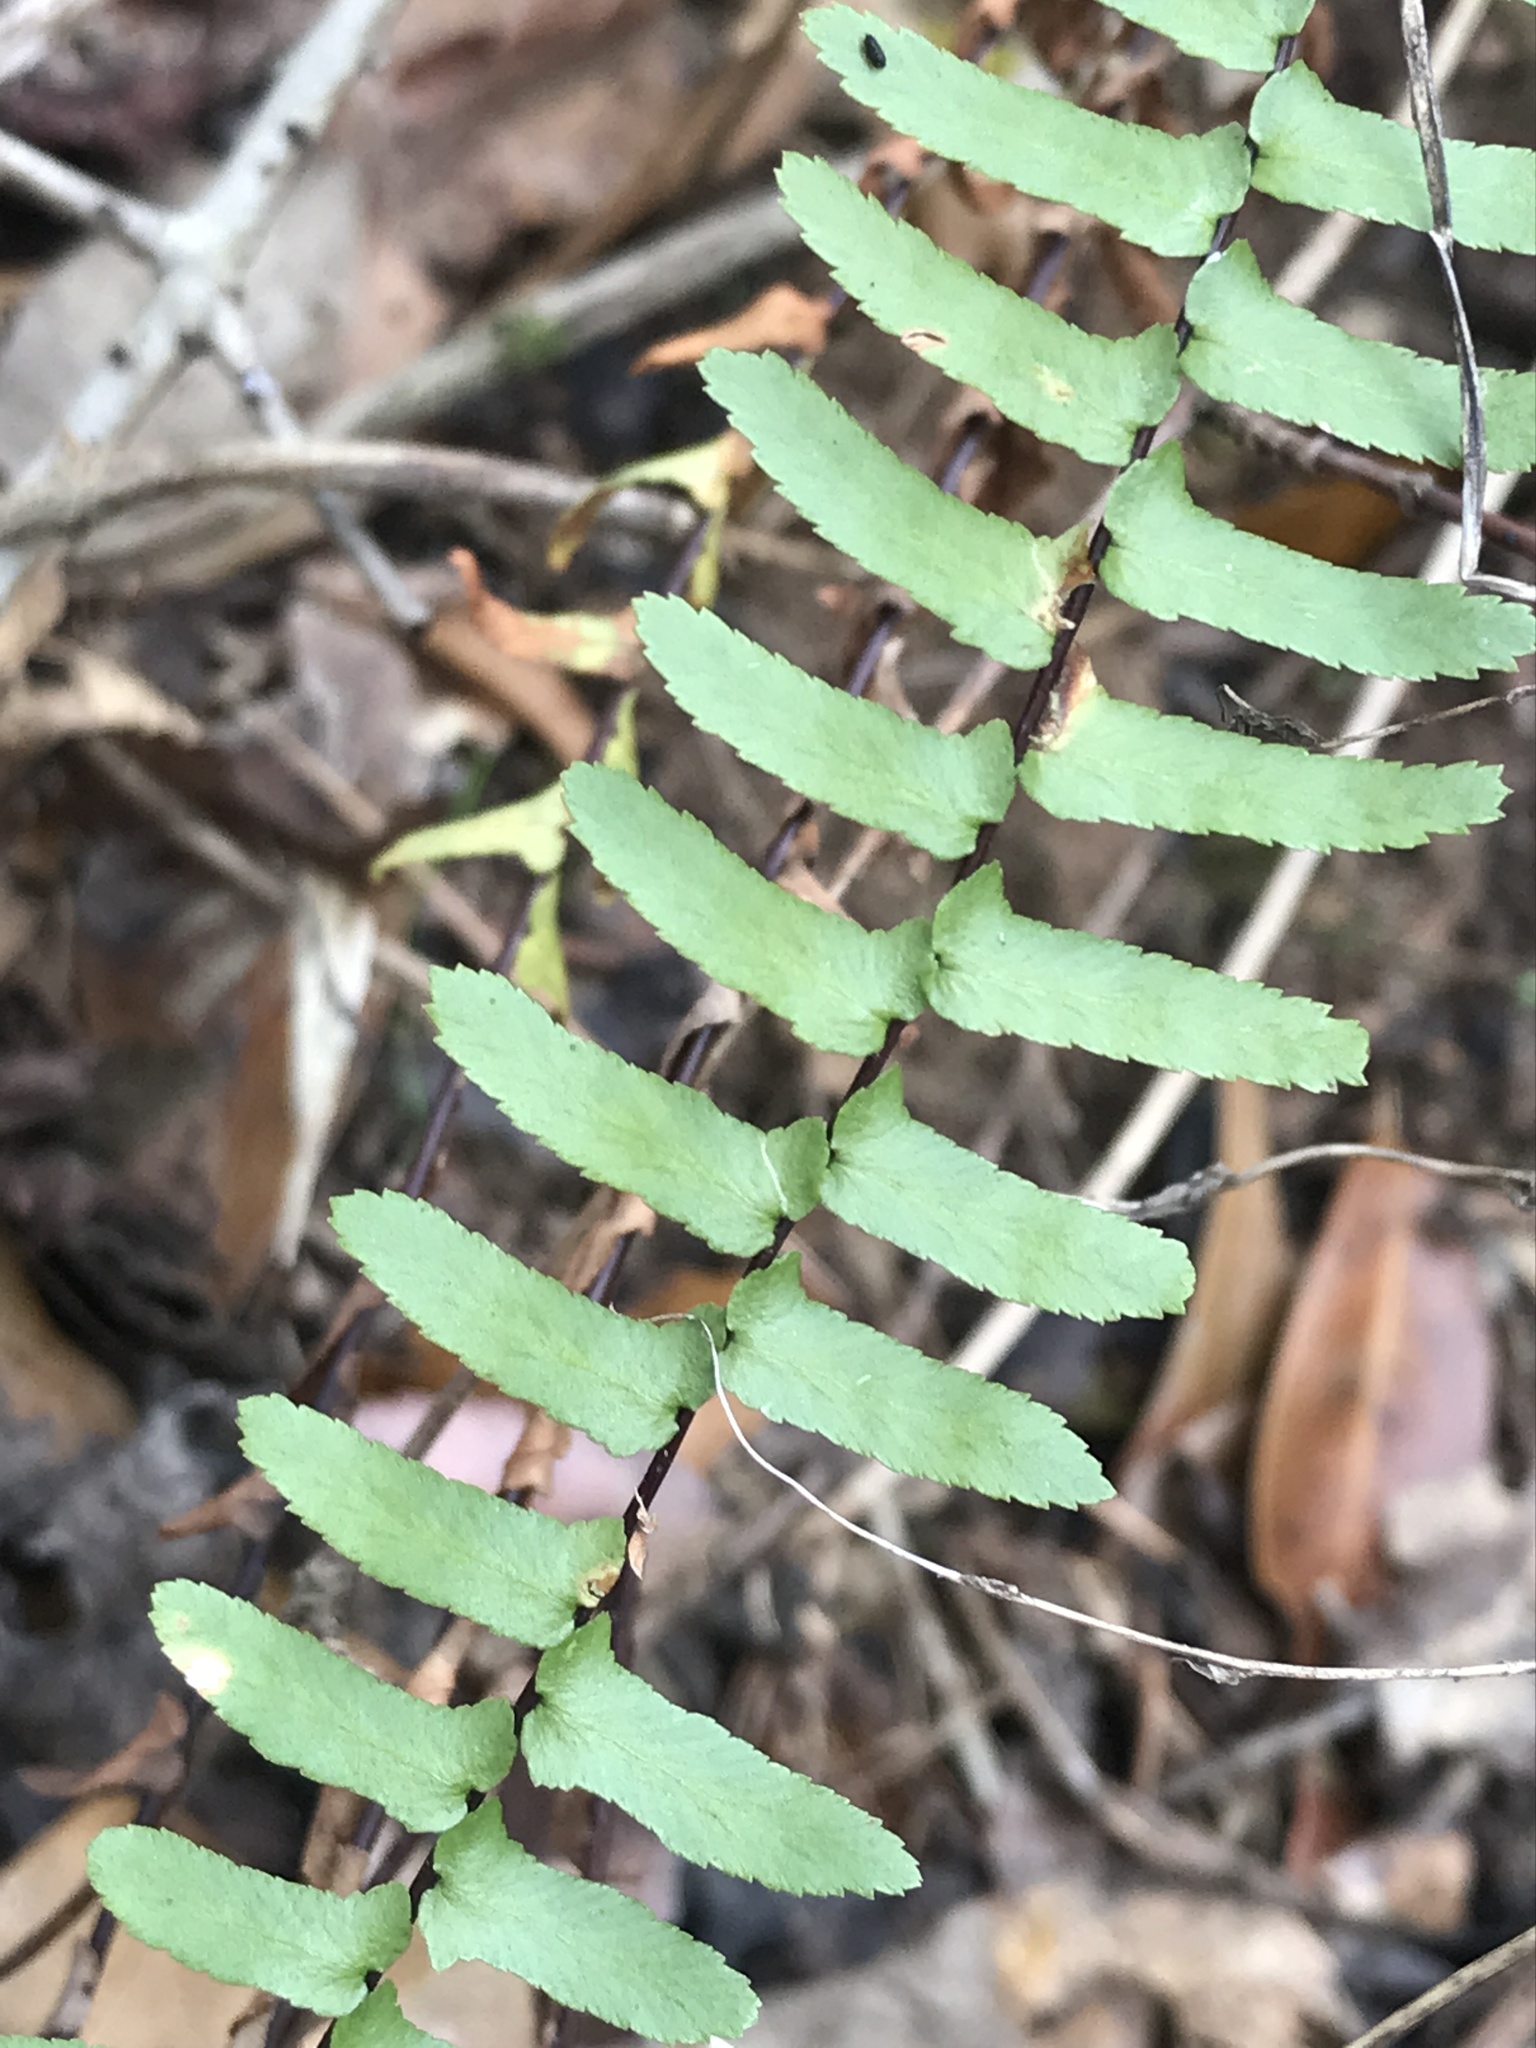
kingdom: Plantae
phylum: Tracheophyta
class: Polypodiopsida
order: Polypodiales
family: Aspleniaceae
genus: Asplenium
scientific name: Asplenium platyneuron
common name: Ebony spleenwort
